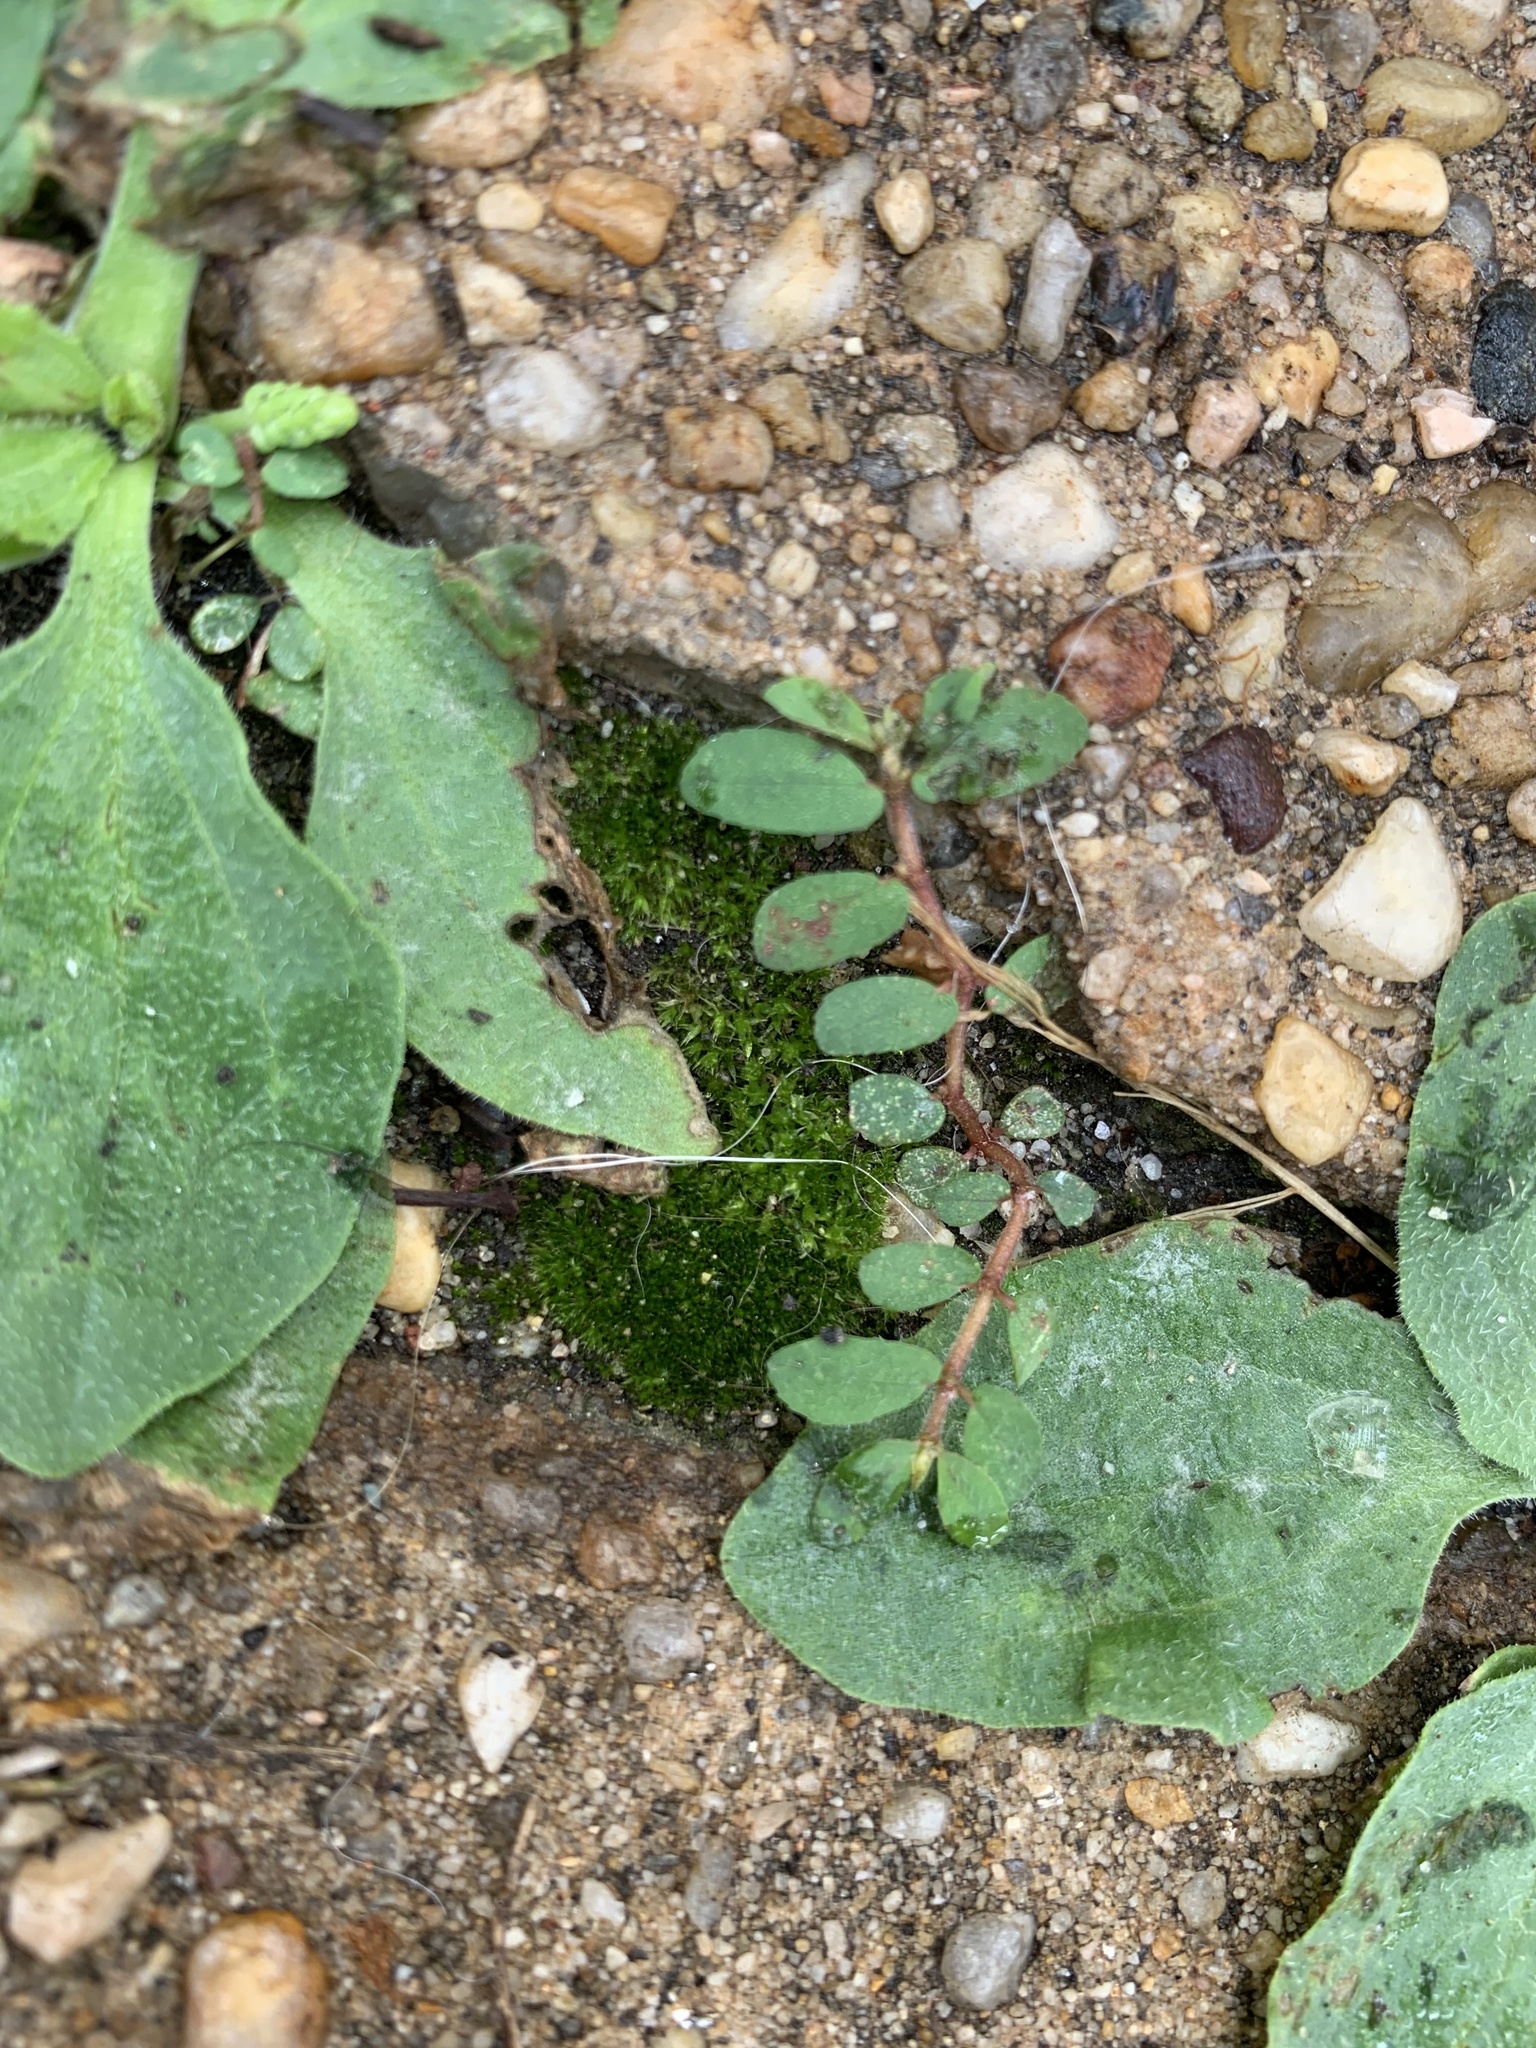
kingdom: Plantae
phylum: Tracheophyta
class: Magnoliopsida
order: Malpighiales
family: Euphorbiaceae
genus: Euphorbia
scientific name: Euphorbia maculata
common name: Spotted spurge
